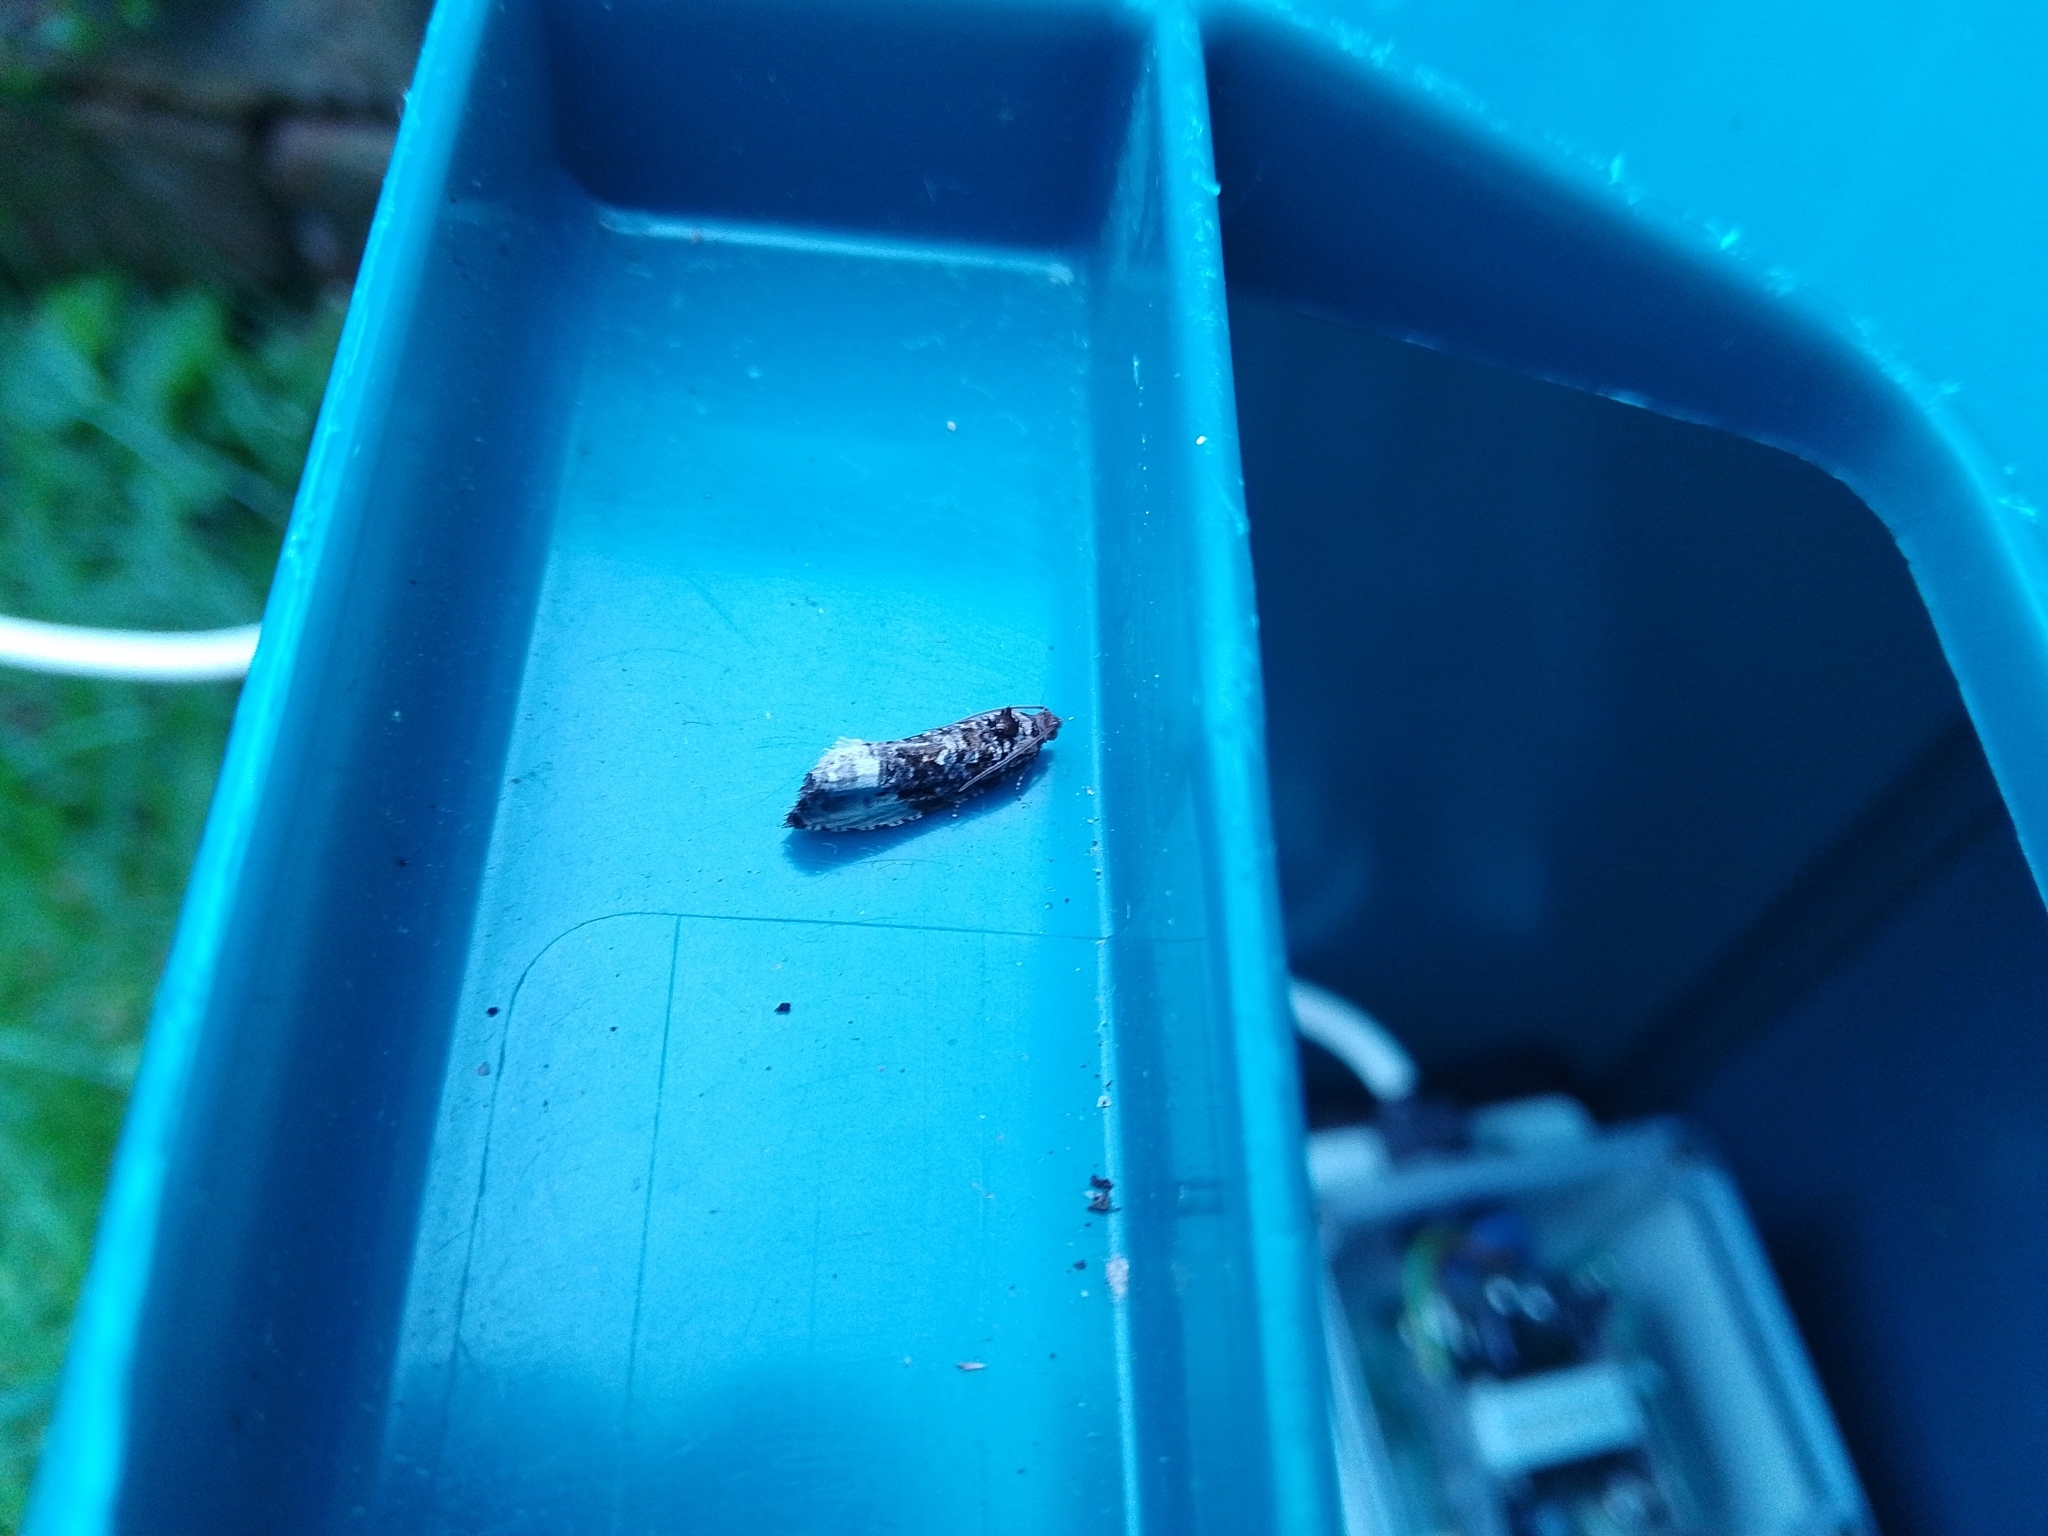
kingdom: Animalia
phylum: Arthropoda
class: Insecta
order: Lepidoptera
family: Tortricidae
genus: Hedya
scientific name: Hedya nubiferana
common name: Marbled orchard tortrix
